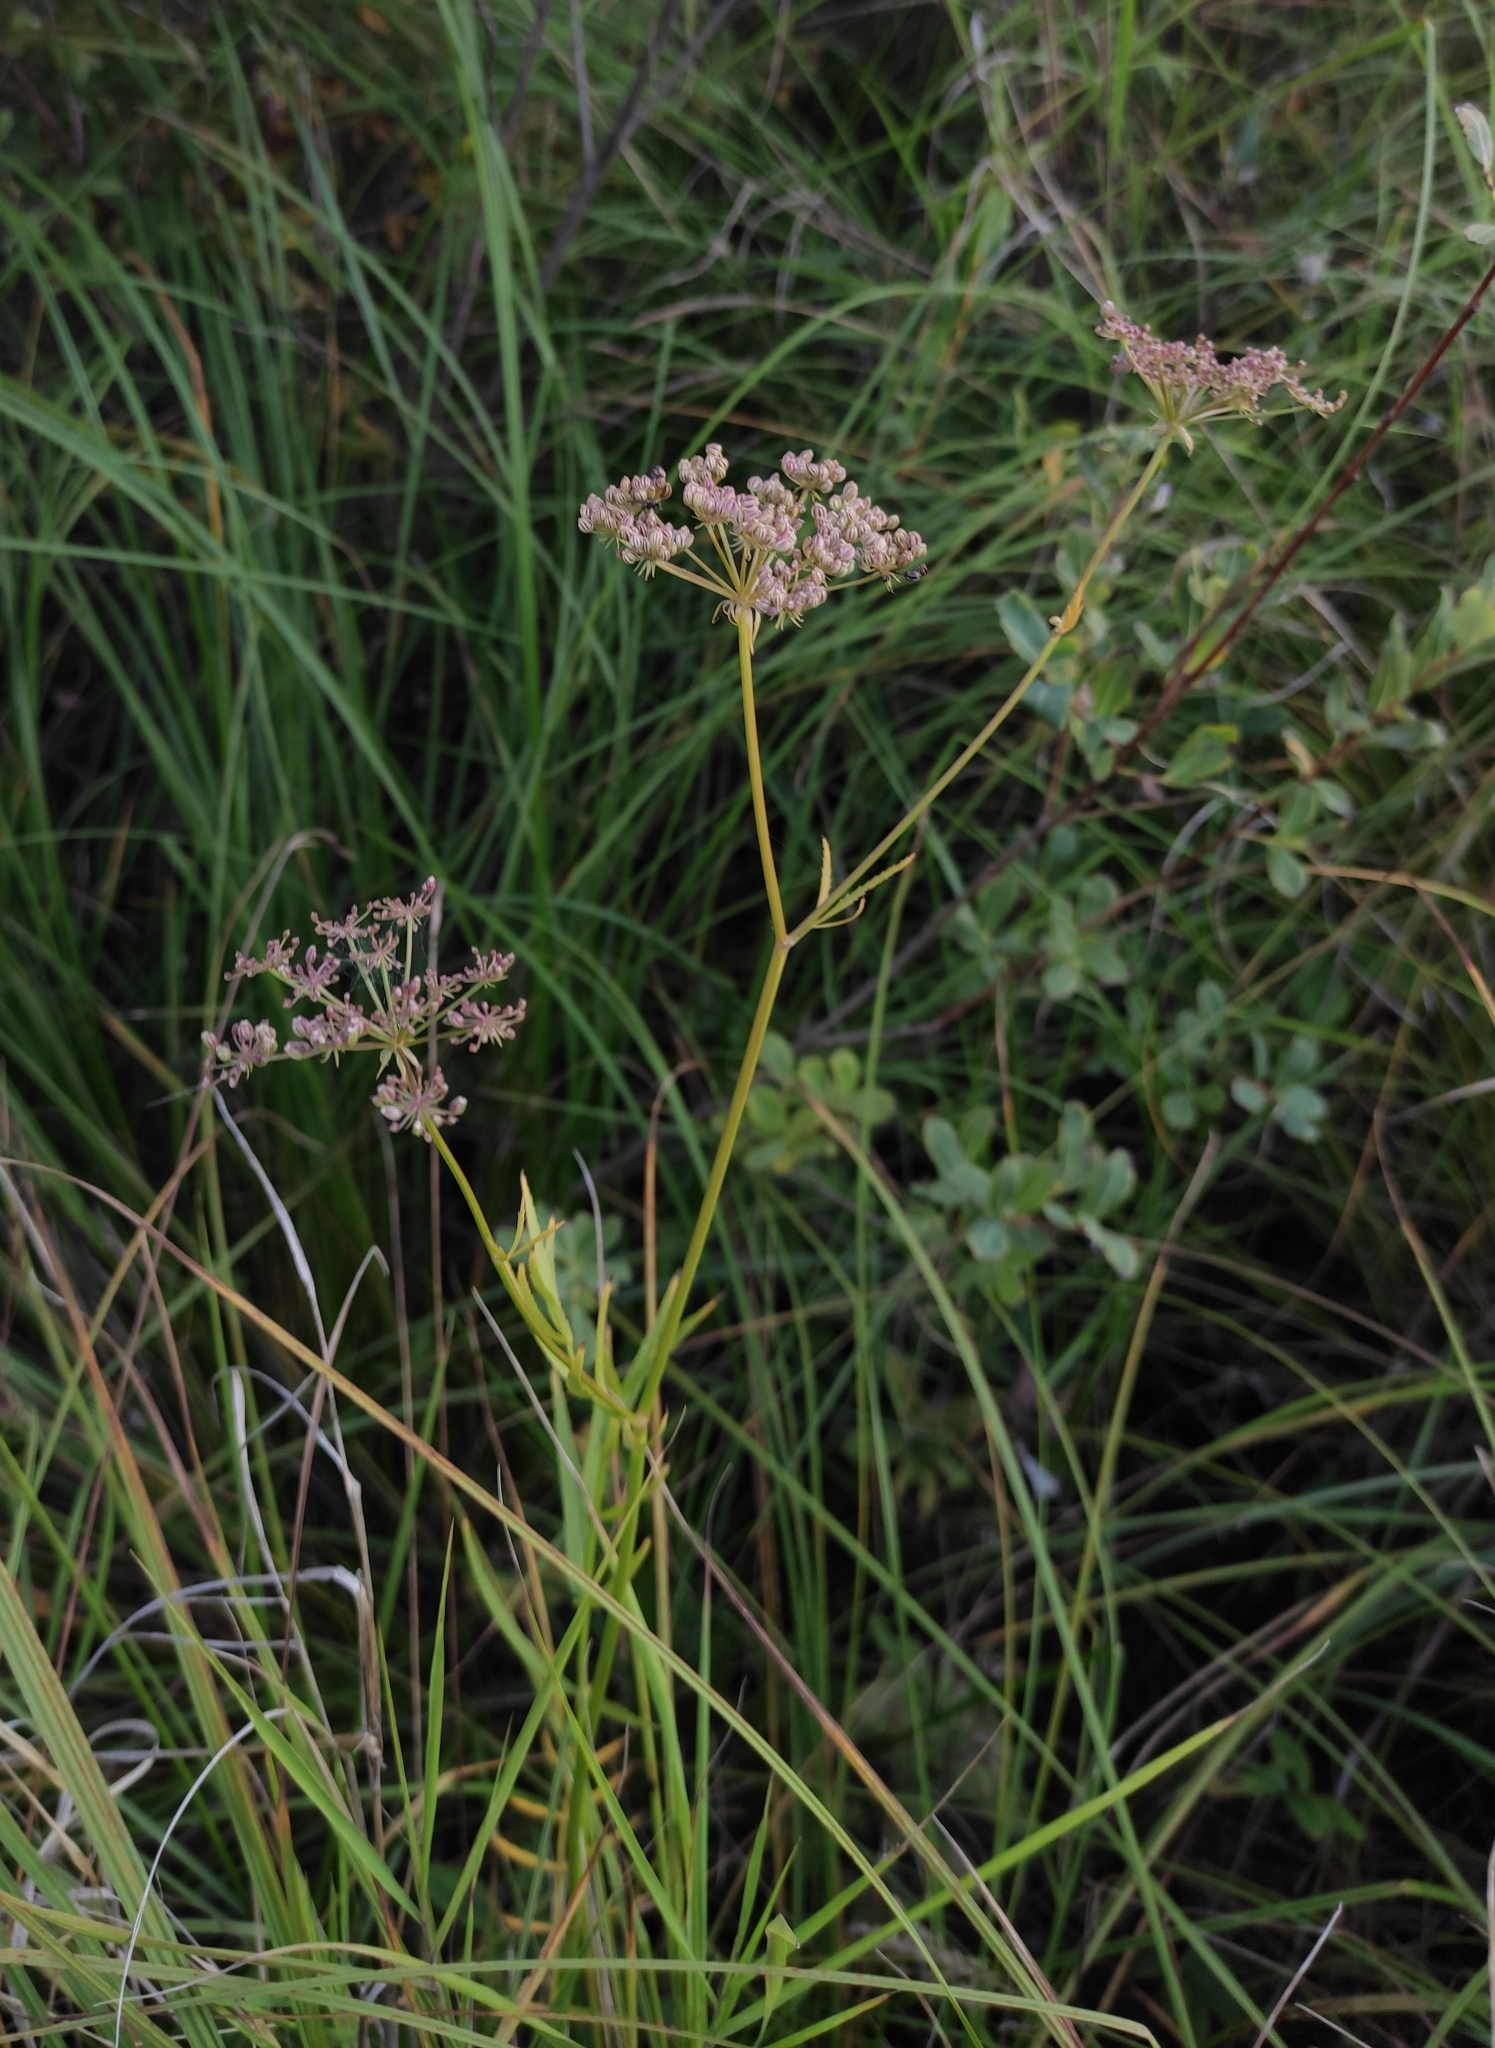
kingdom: Plantae
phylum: Tracheophyta
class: Magnoliopsida
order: Apiales
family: Apiaceae
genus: Sium
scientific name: Sium suave
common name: Hemlock water-parsnip
